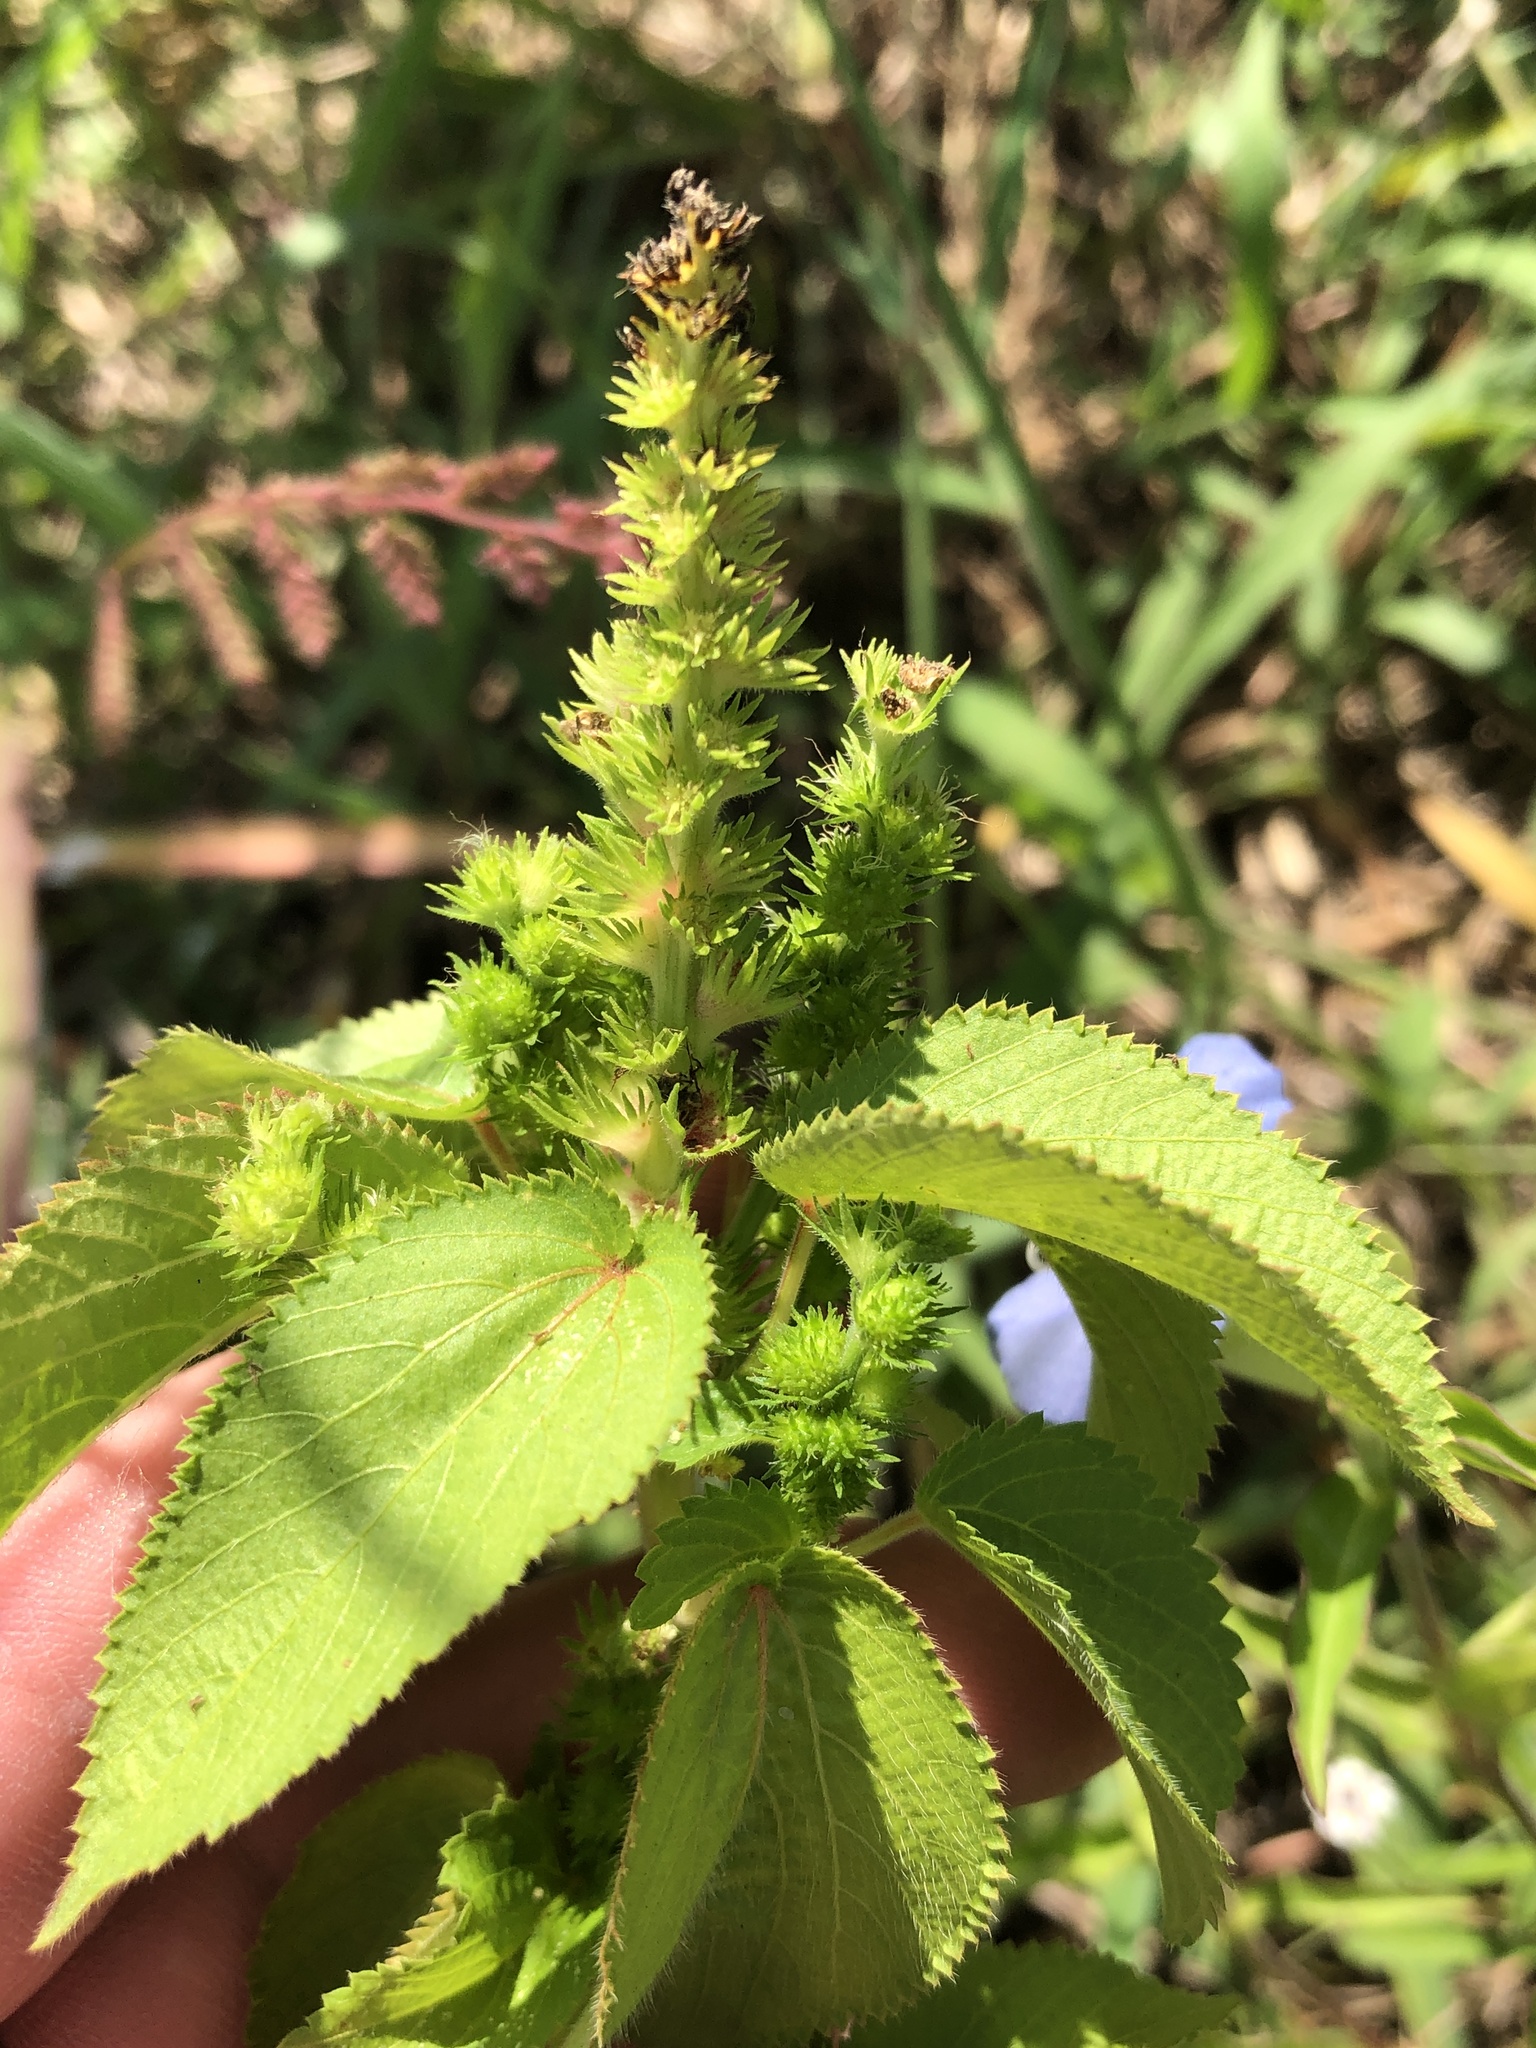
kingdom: Plantae
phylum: Tracheophyta
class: Magnoliopsida
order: Malpighiales
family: Euphorbiaceae
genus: Acalypha
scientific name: Acalypha ostryifolia
